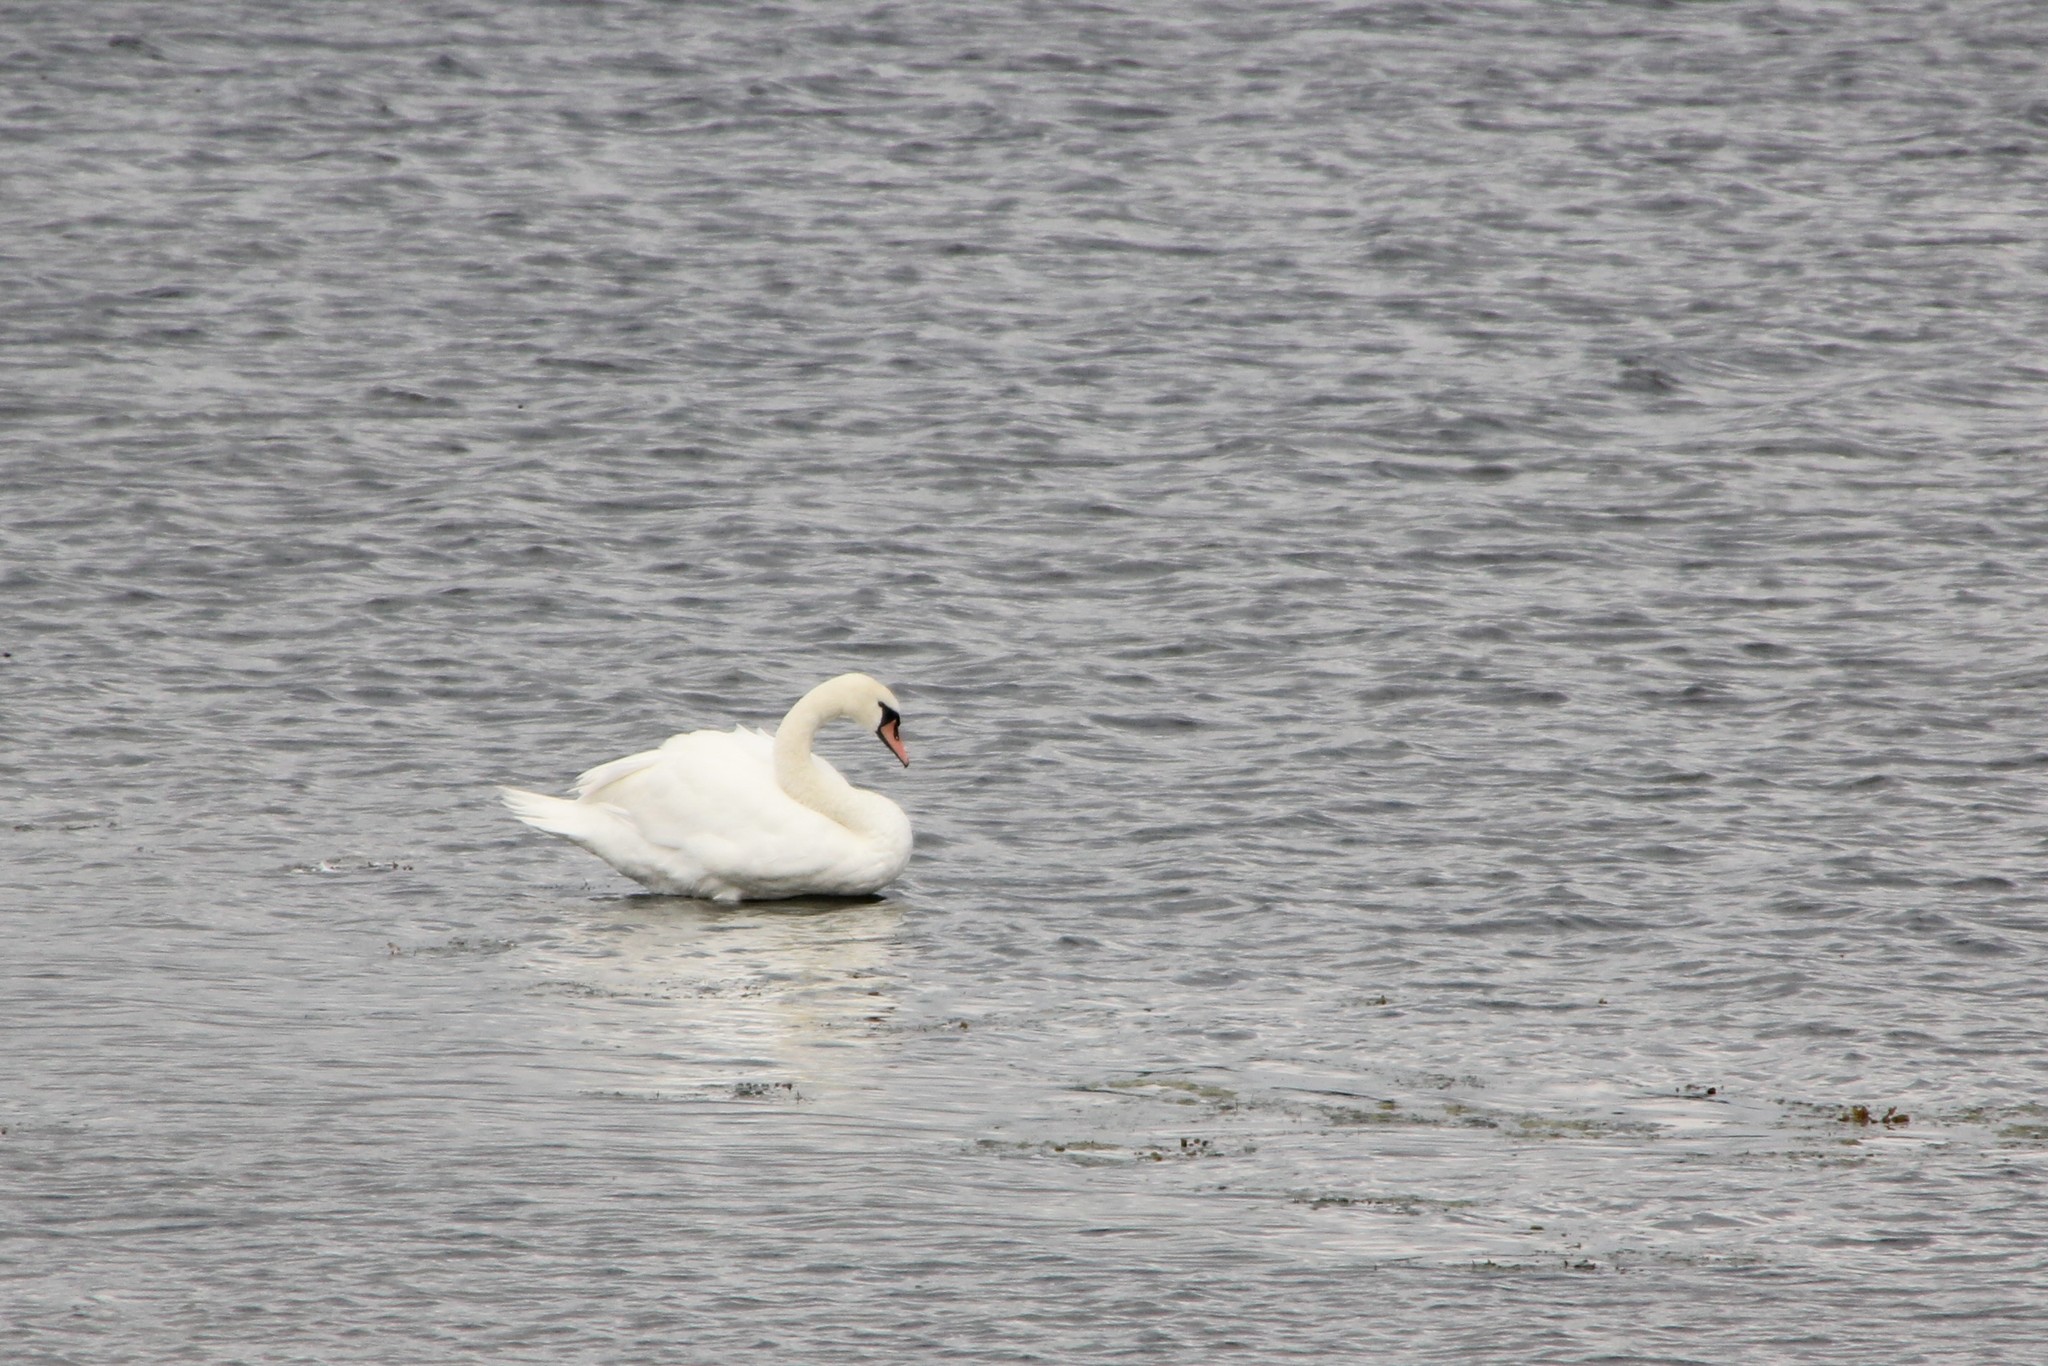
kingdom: Animalia
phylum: Chordata
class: Aves
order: Anseriformes
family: Anatidae
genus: Cygnus
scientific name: Cygnus olor
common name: Mute swan
